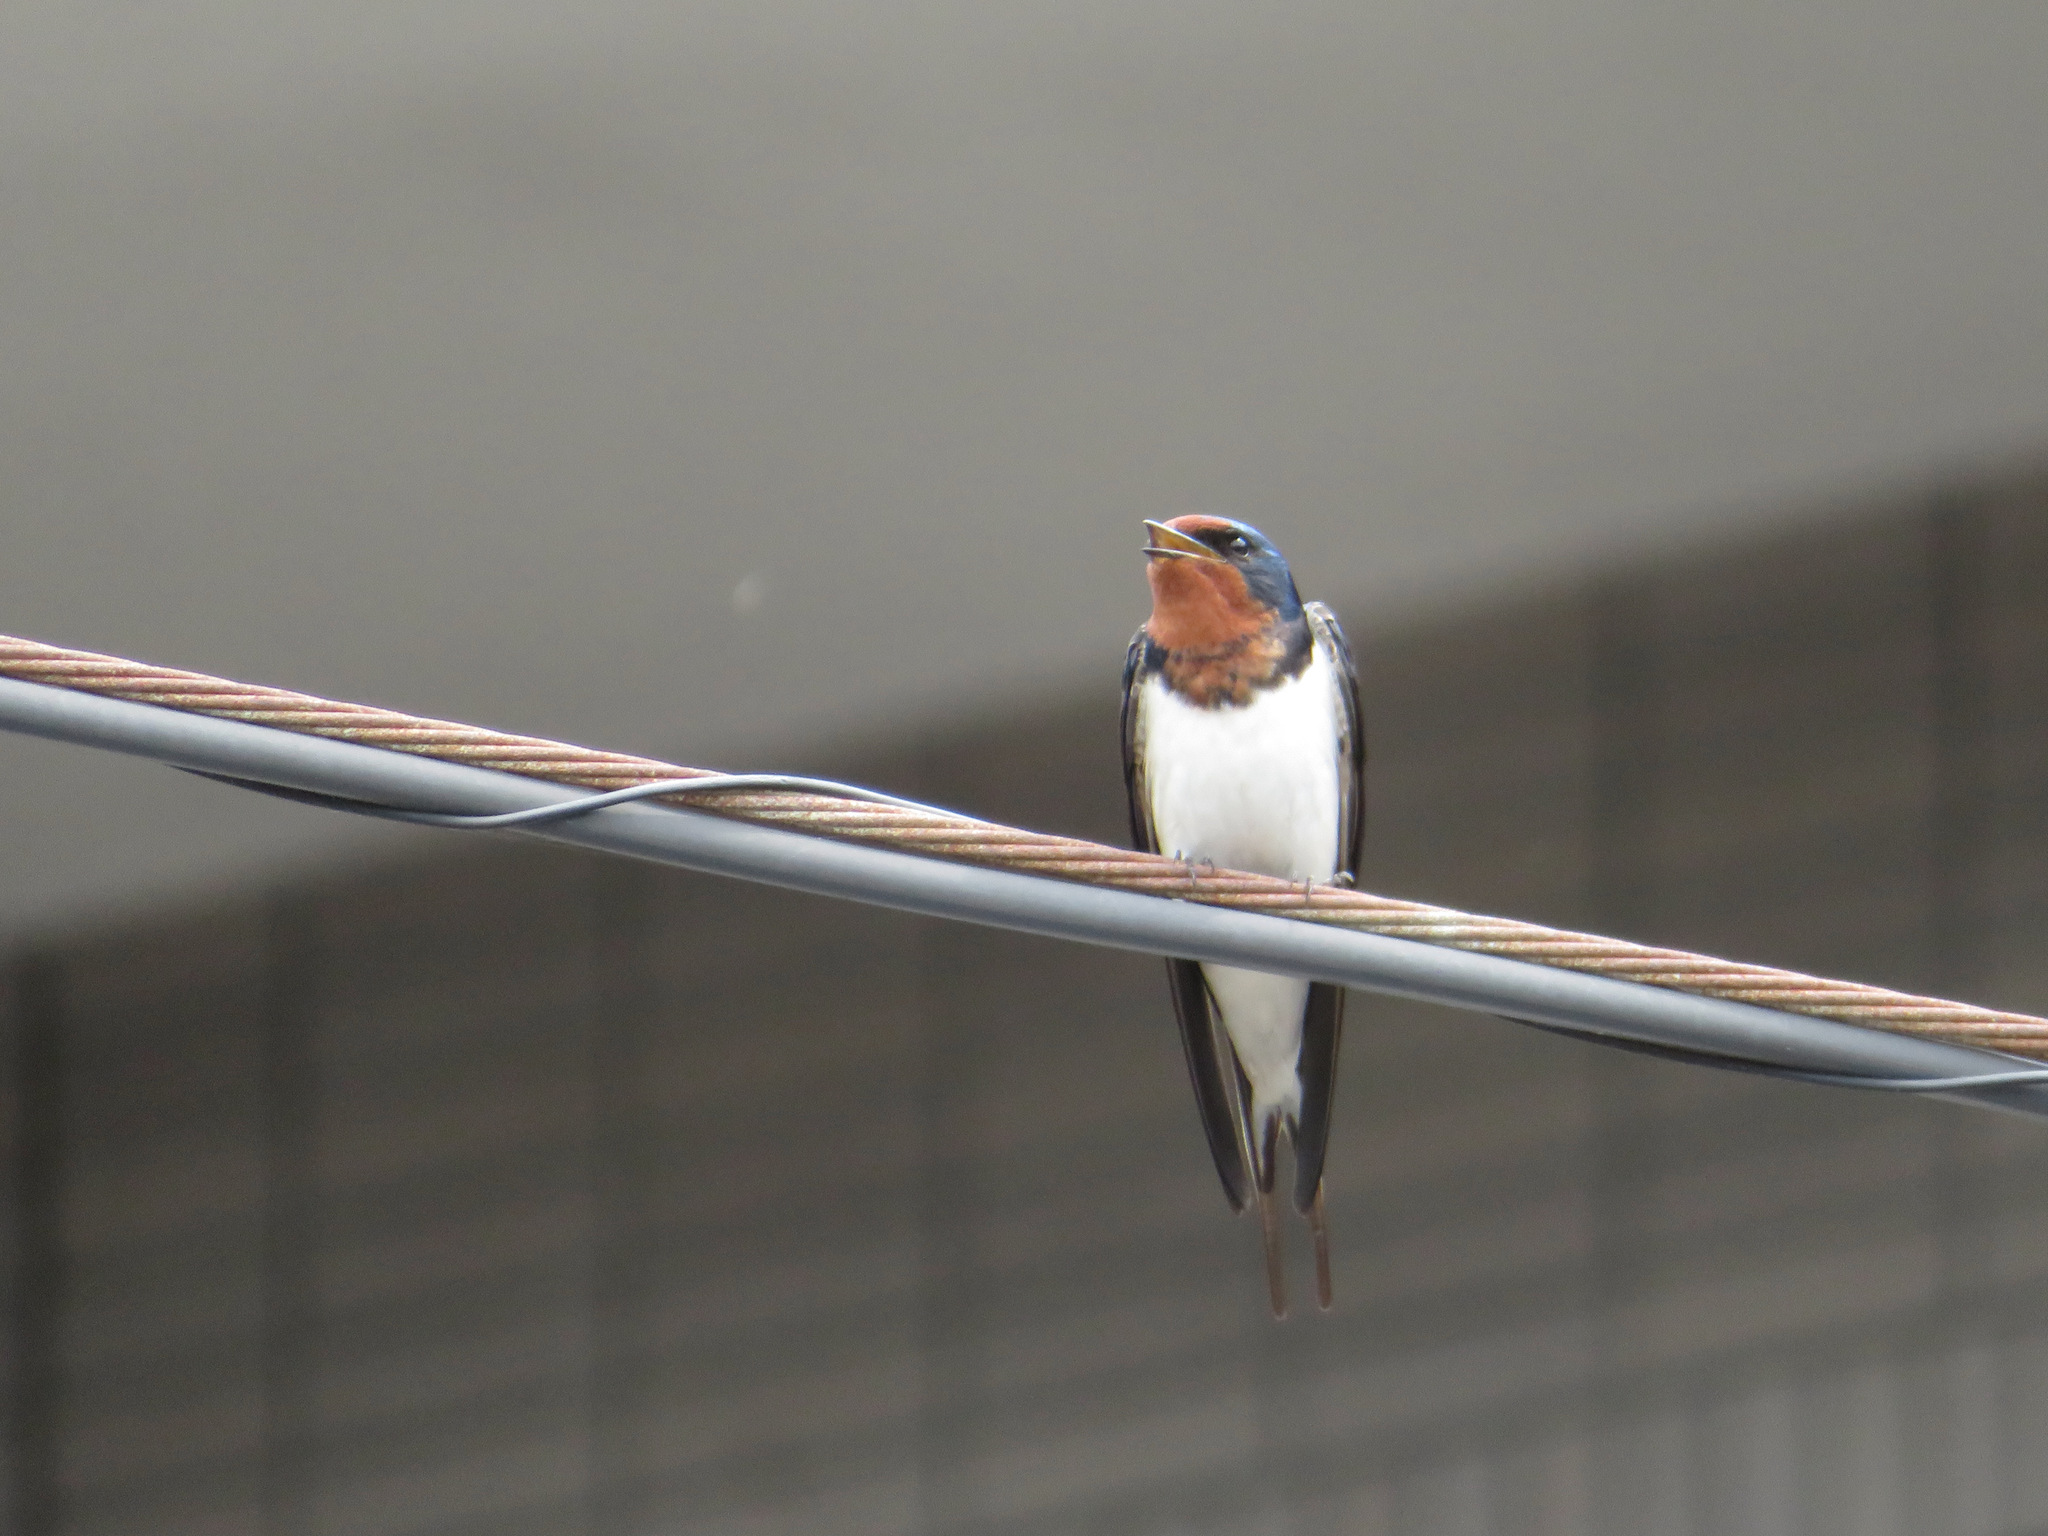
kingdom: Animalia
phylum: Chordata
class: Aves
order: Passeriformes
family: Hirundinidae
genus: Hirundo
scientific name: Hirundo rustica
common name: Barn swallow
